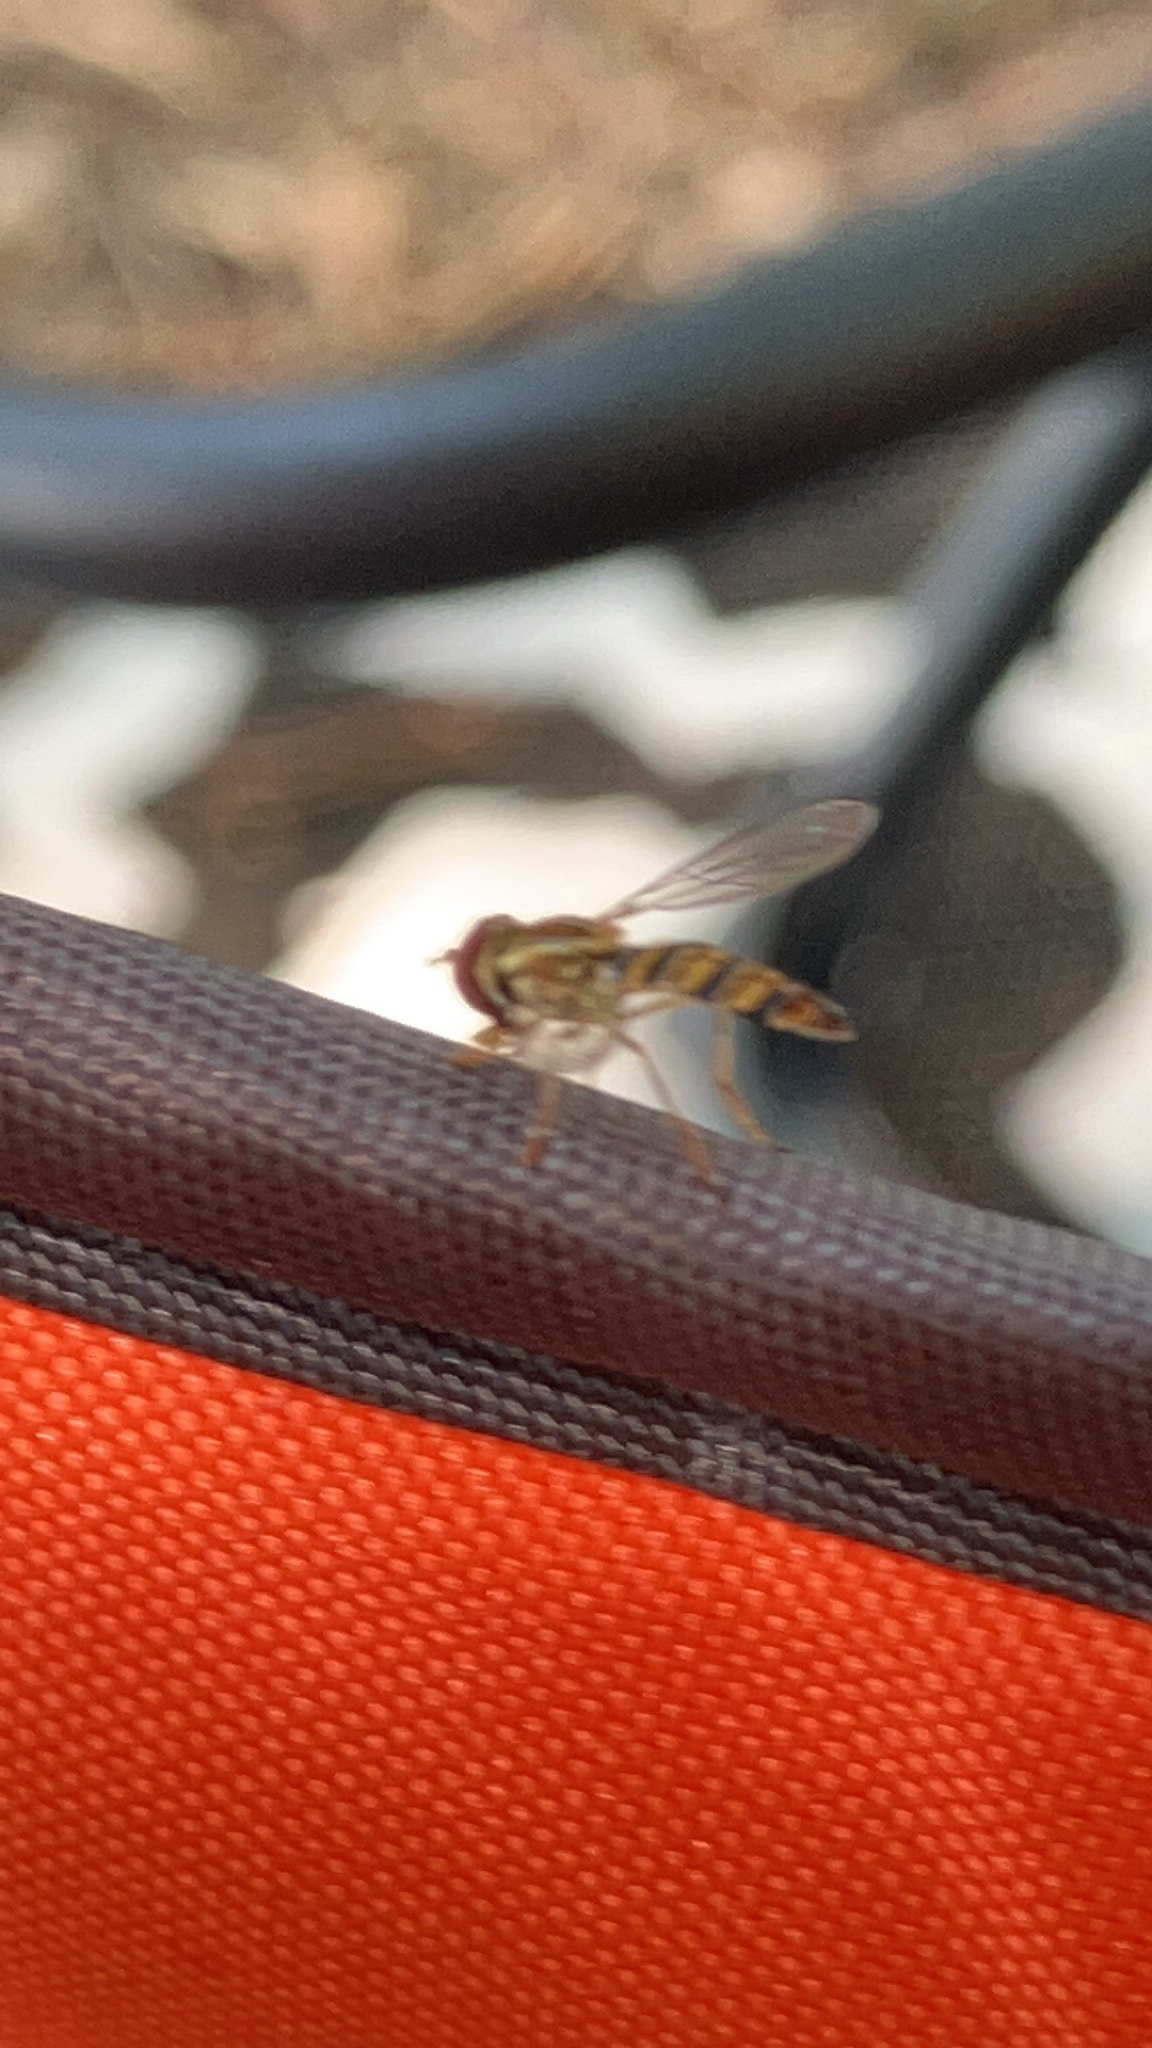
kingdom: Animalia
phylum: Arthropoda
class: Insecta
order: Diptera
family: Syrphidae
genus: Toxomerus
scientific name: Toxomerus politus
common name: Maize calligrapher
